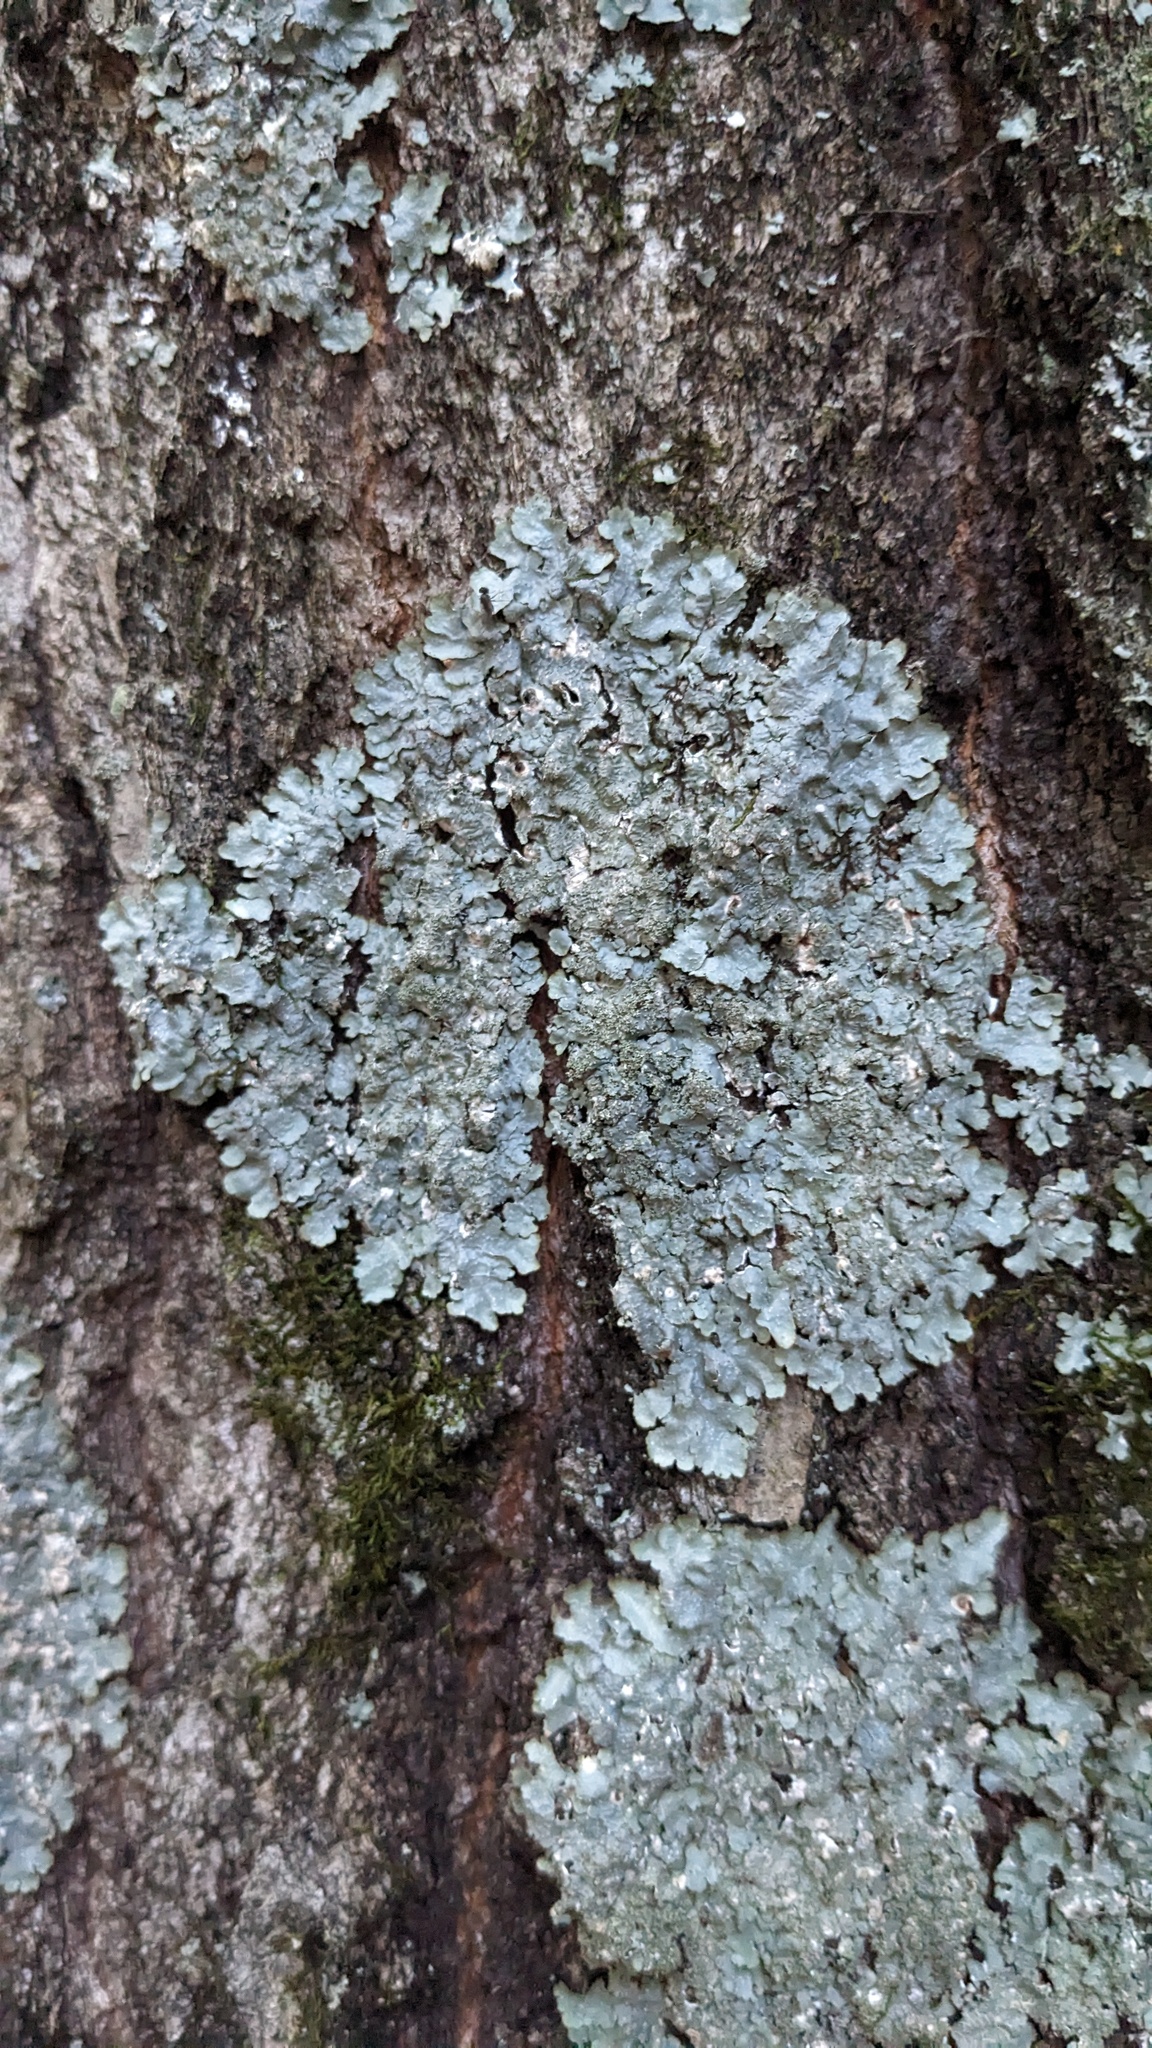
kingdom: Fungi
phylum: Ascomycota
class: Lecanoromycetes
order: Lecanorales
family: Parmeliaceae
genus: Punctelia
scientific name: Punctelia rudecta
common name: Rough speckled shield lichen
